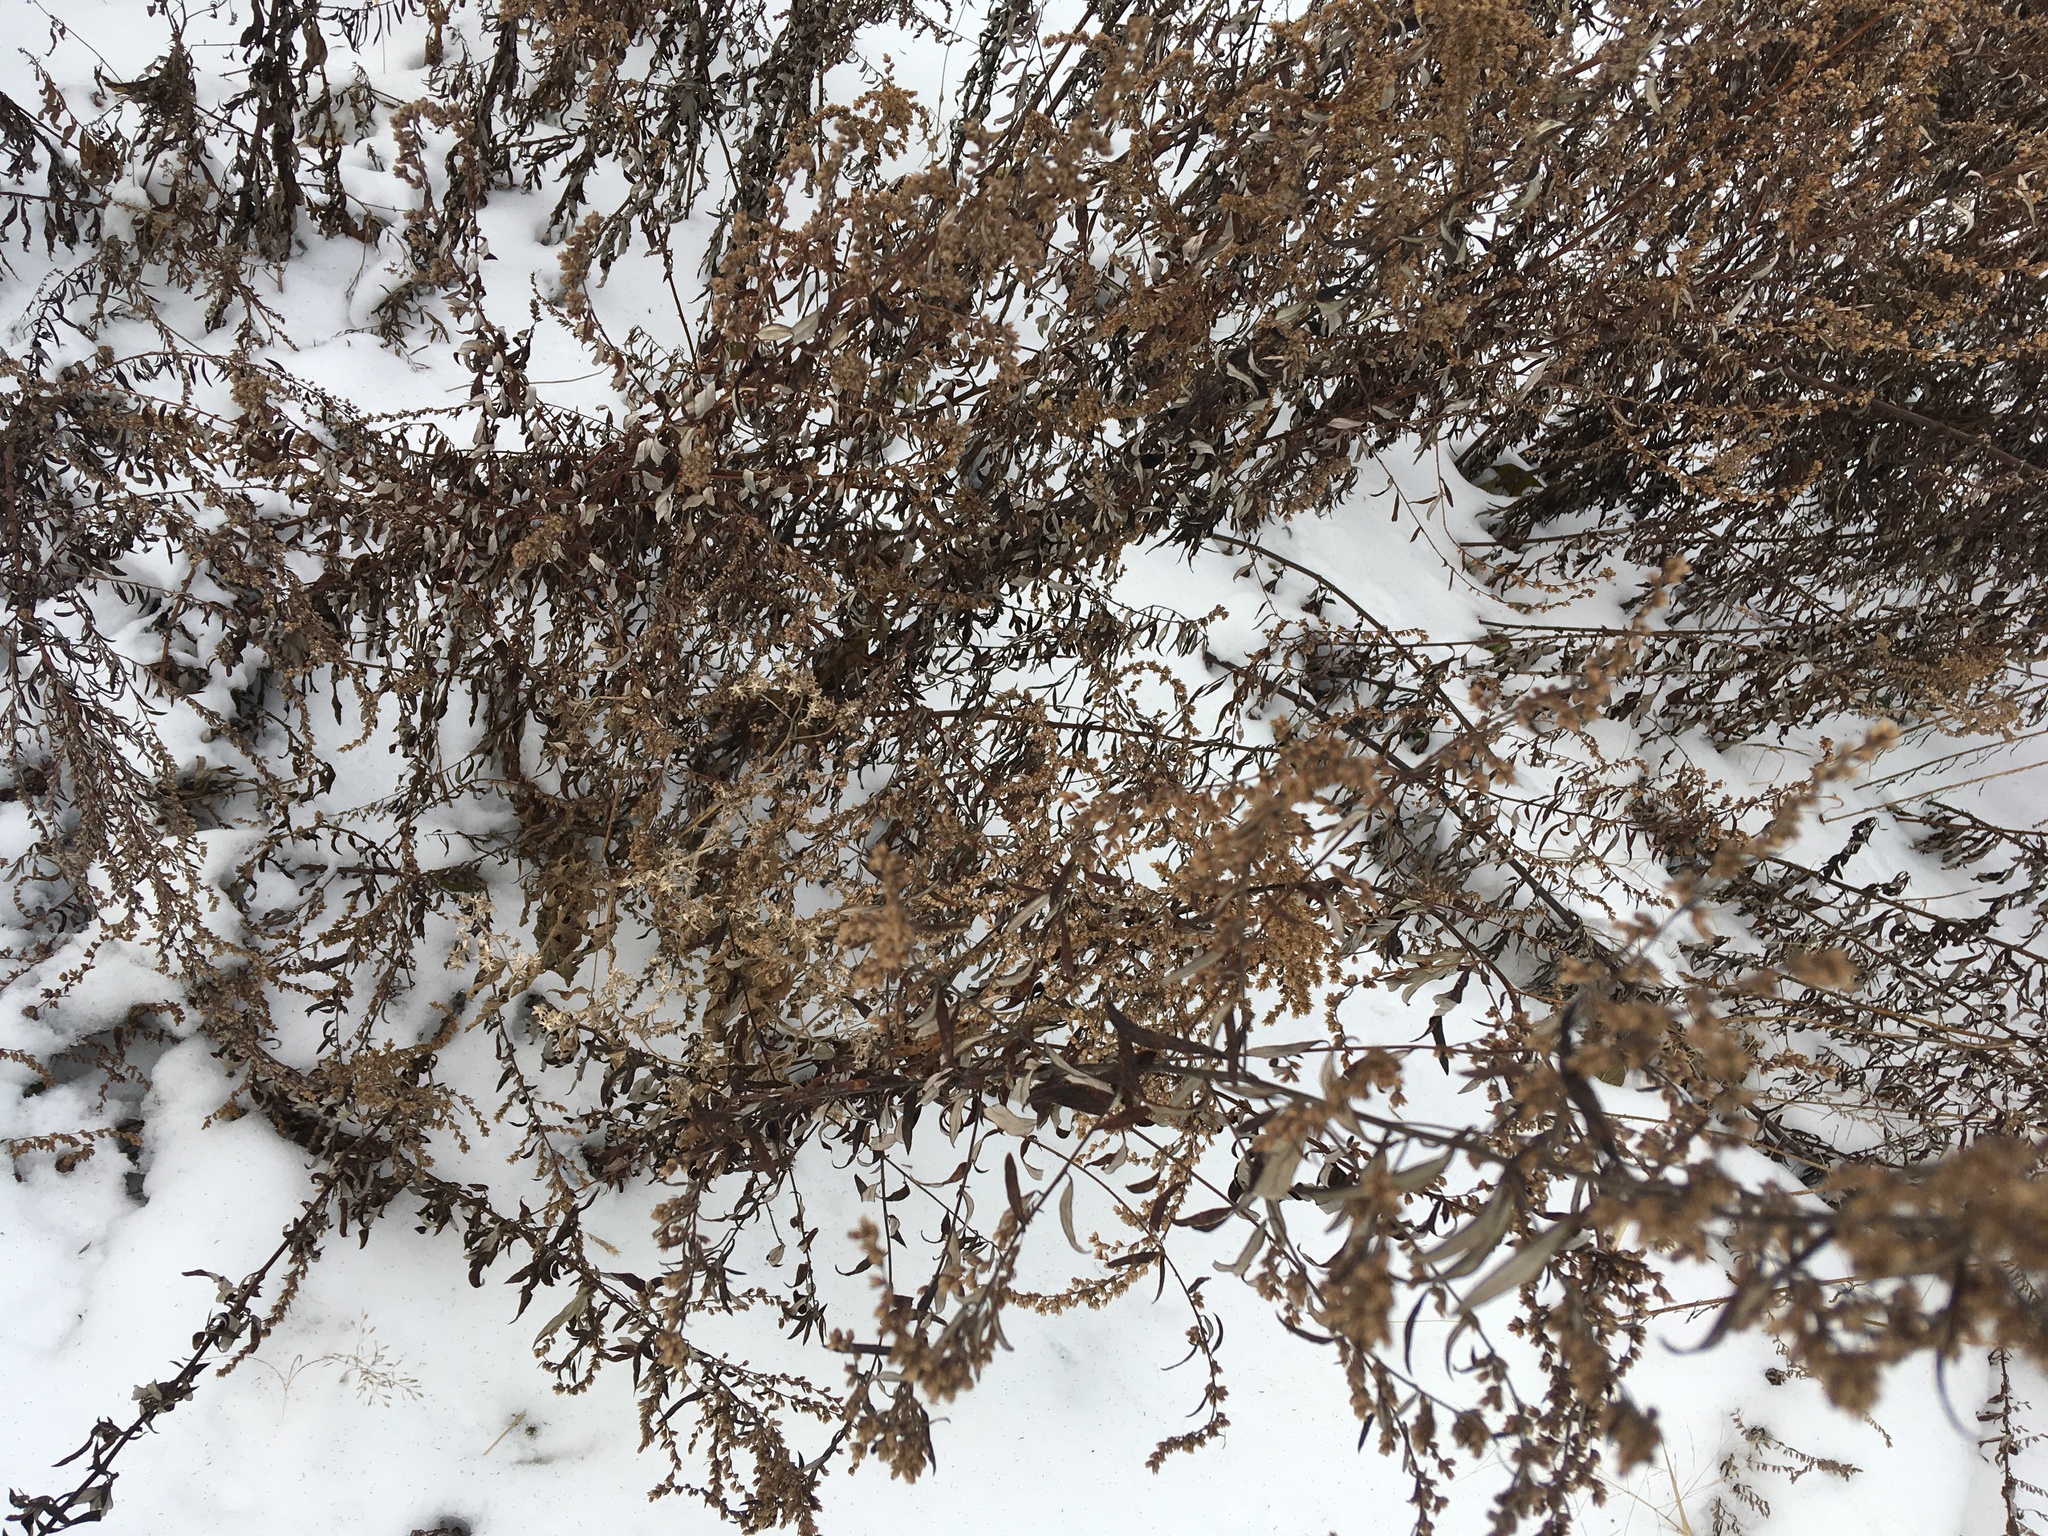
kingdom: Plantae
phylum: Tracheophyta
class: Magnoliopsida
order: Asterales
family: Asteraceae
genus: Artemisia
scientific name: Artemisia vulgaris
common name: Mugwort
